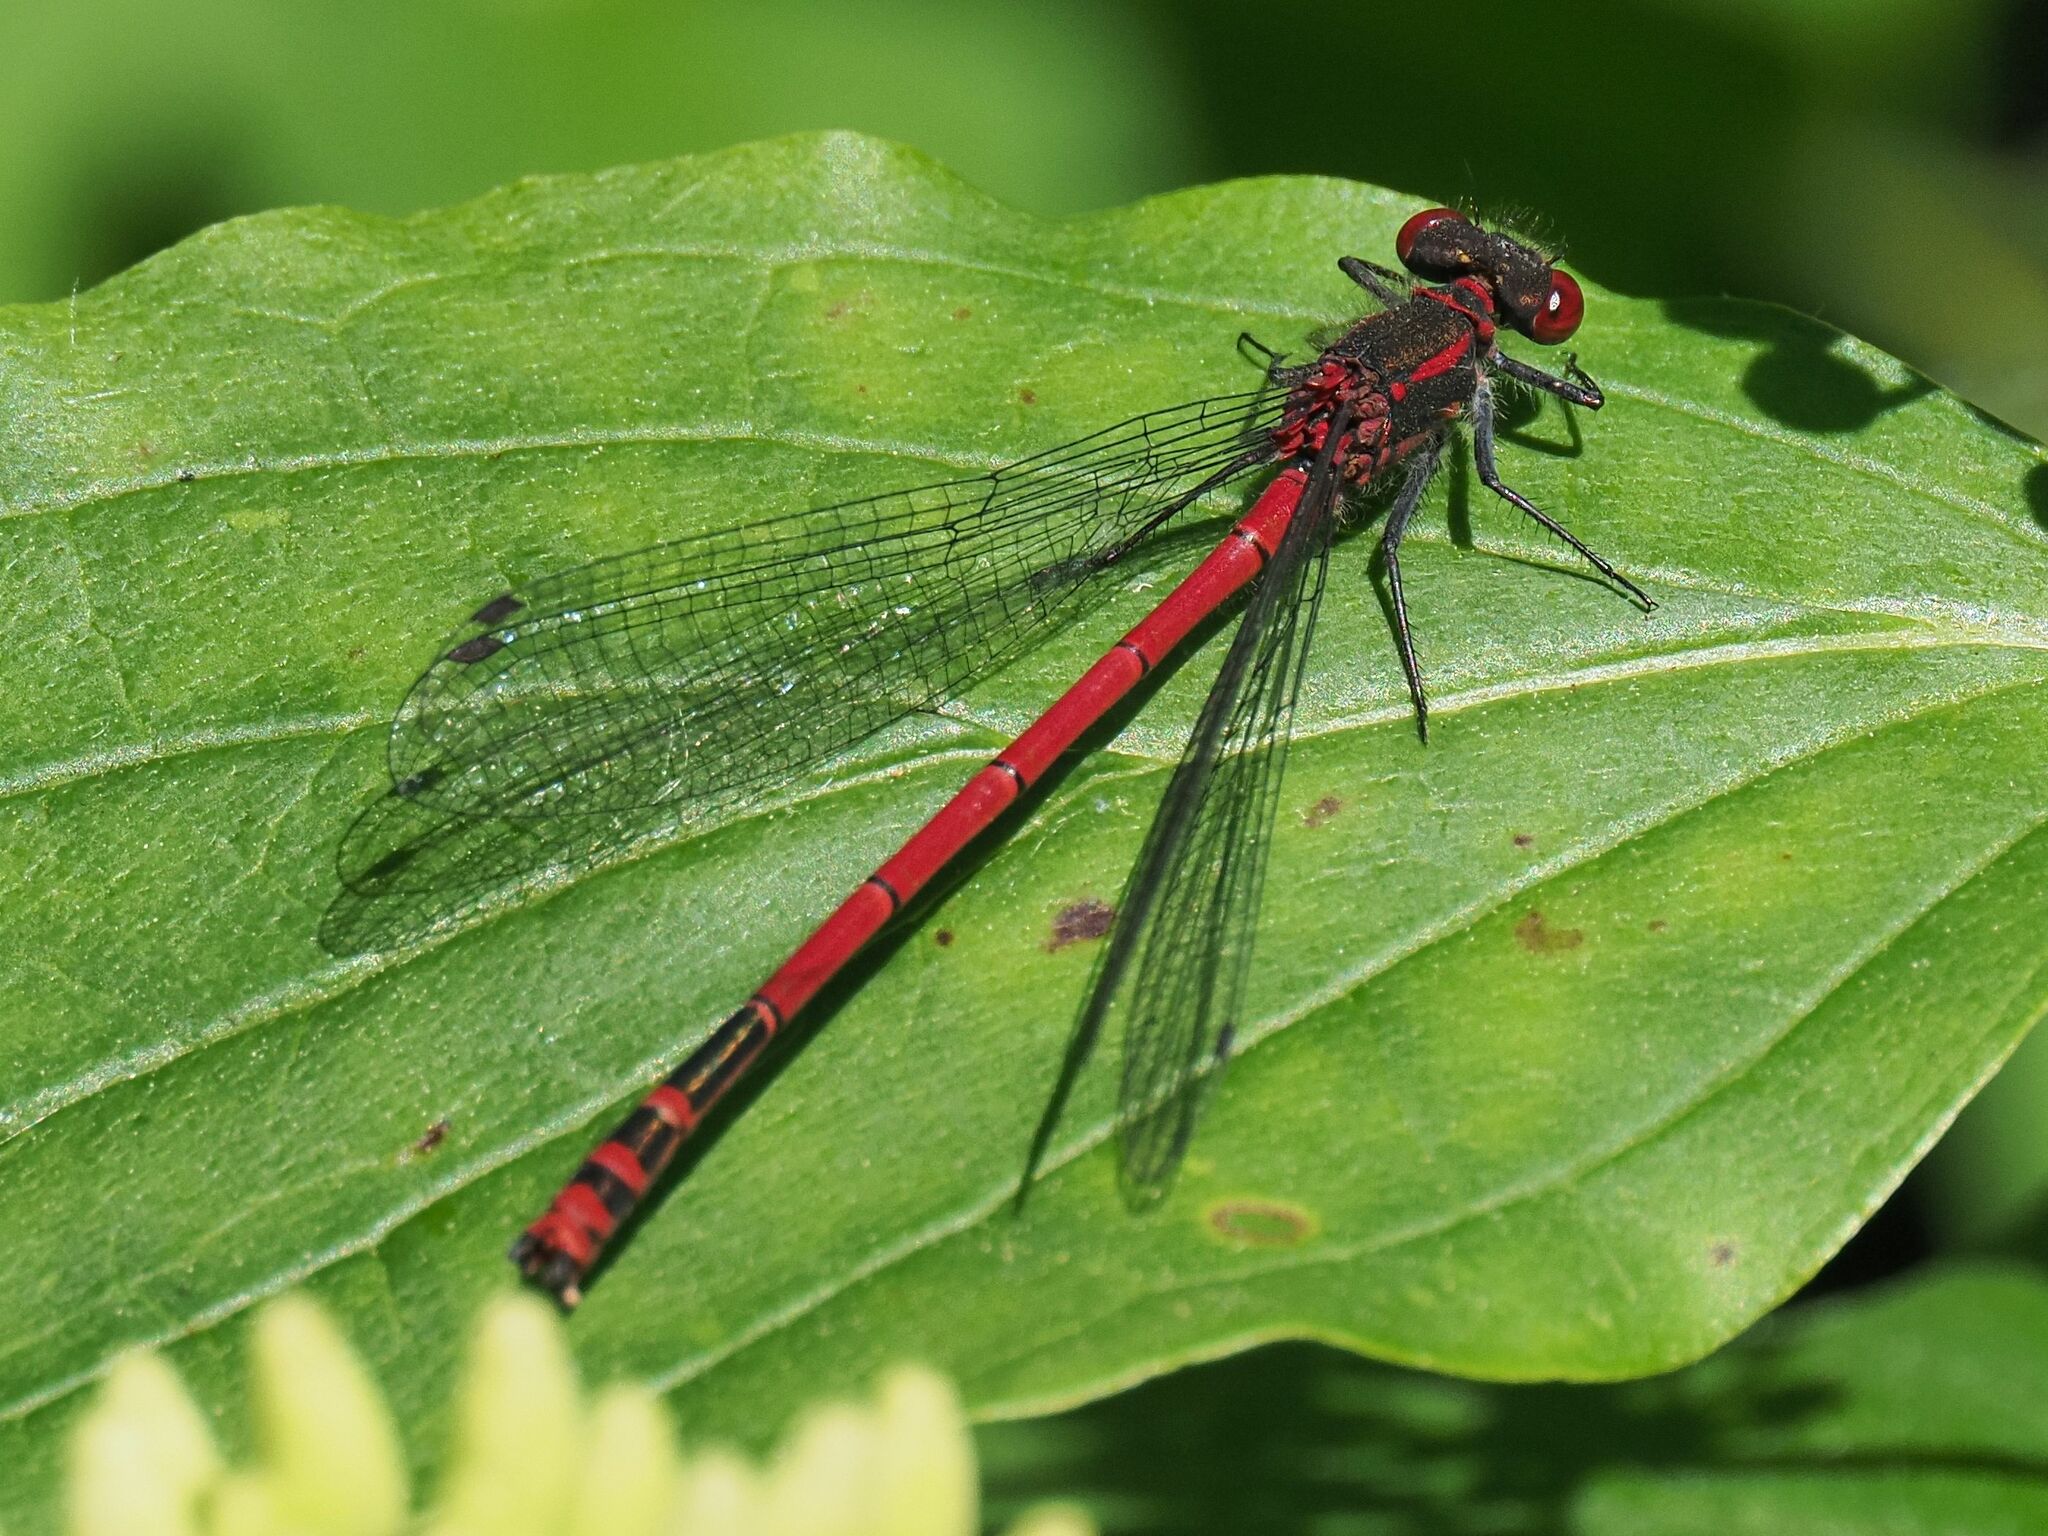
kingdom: Animalia
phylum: Arthropoda
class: Insecta
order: Odonata
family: Coenagrionidae
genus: Pyrrhosoma
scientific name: Pyrrhosoma nymphula
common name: Large red damsel
